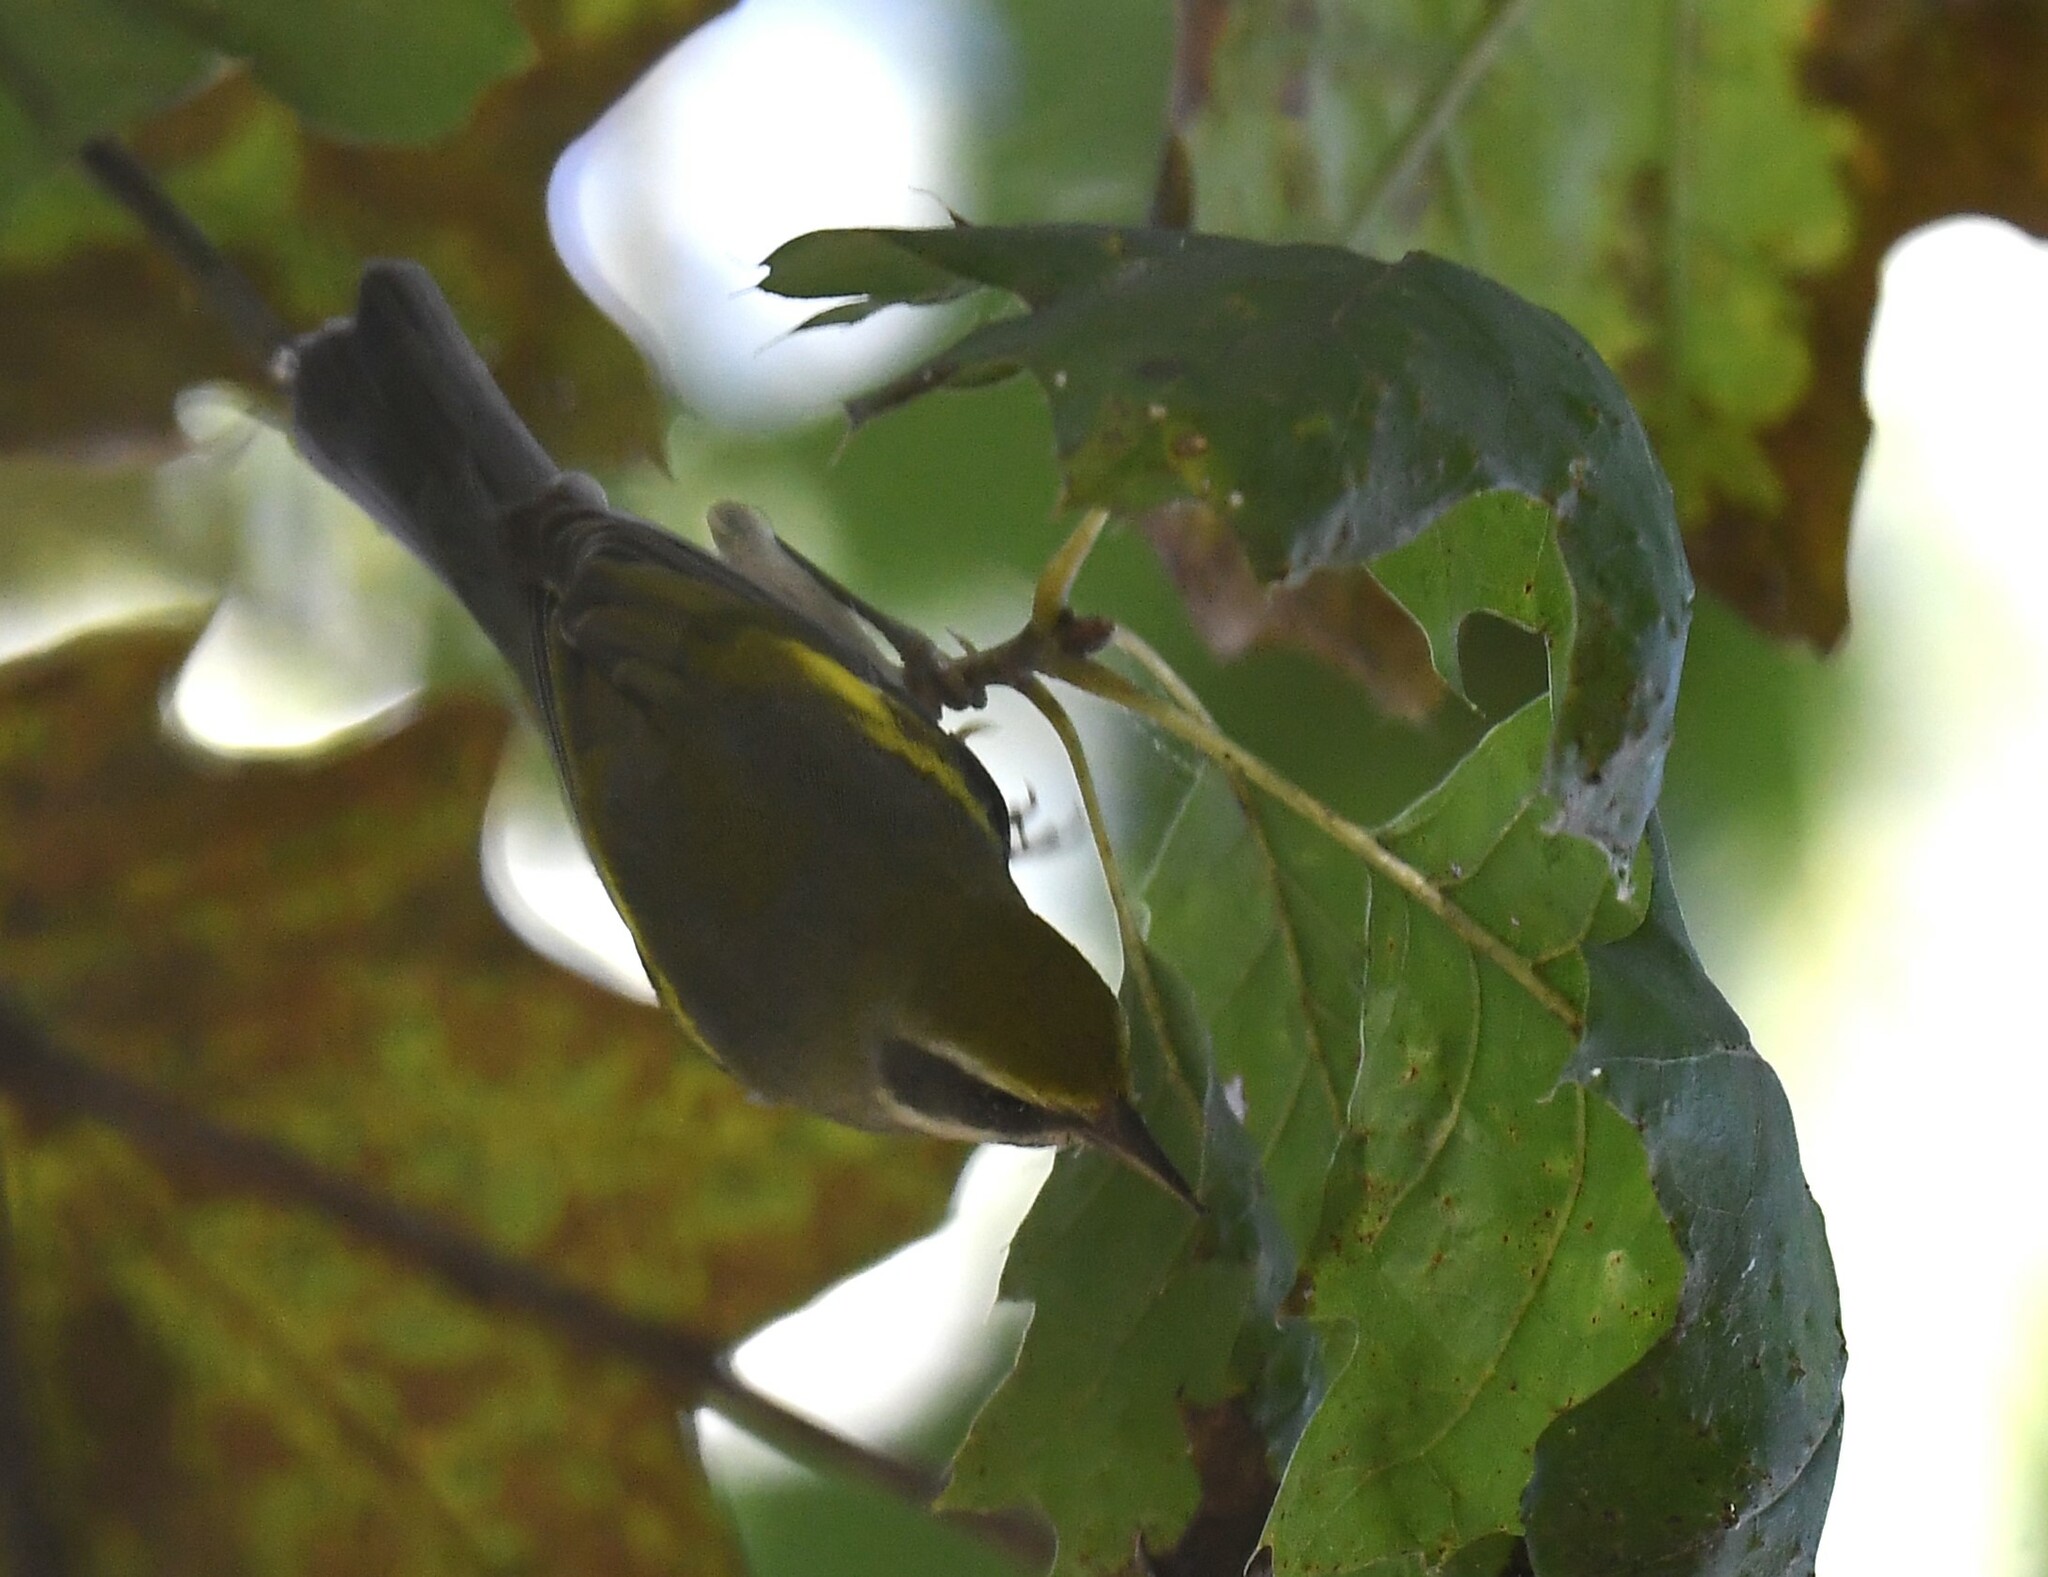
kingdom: Animalia
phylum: Chordata
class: Aves
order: Passeriformes
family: Parulidae
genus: Vermivora
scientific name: Vermivora chrysoptera
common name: Golden-winged warbler
